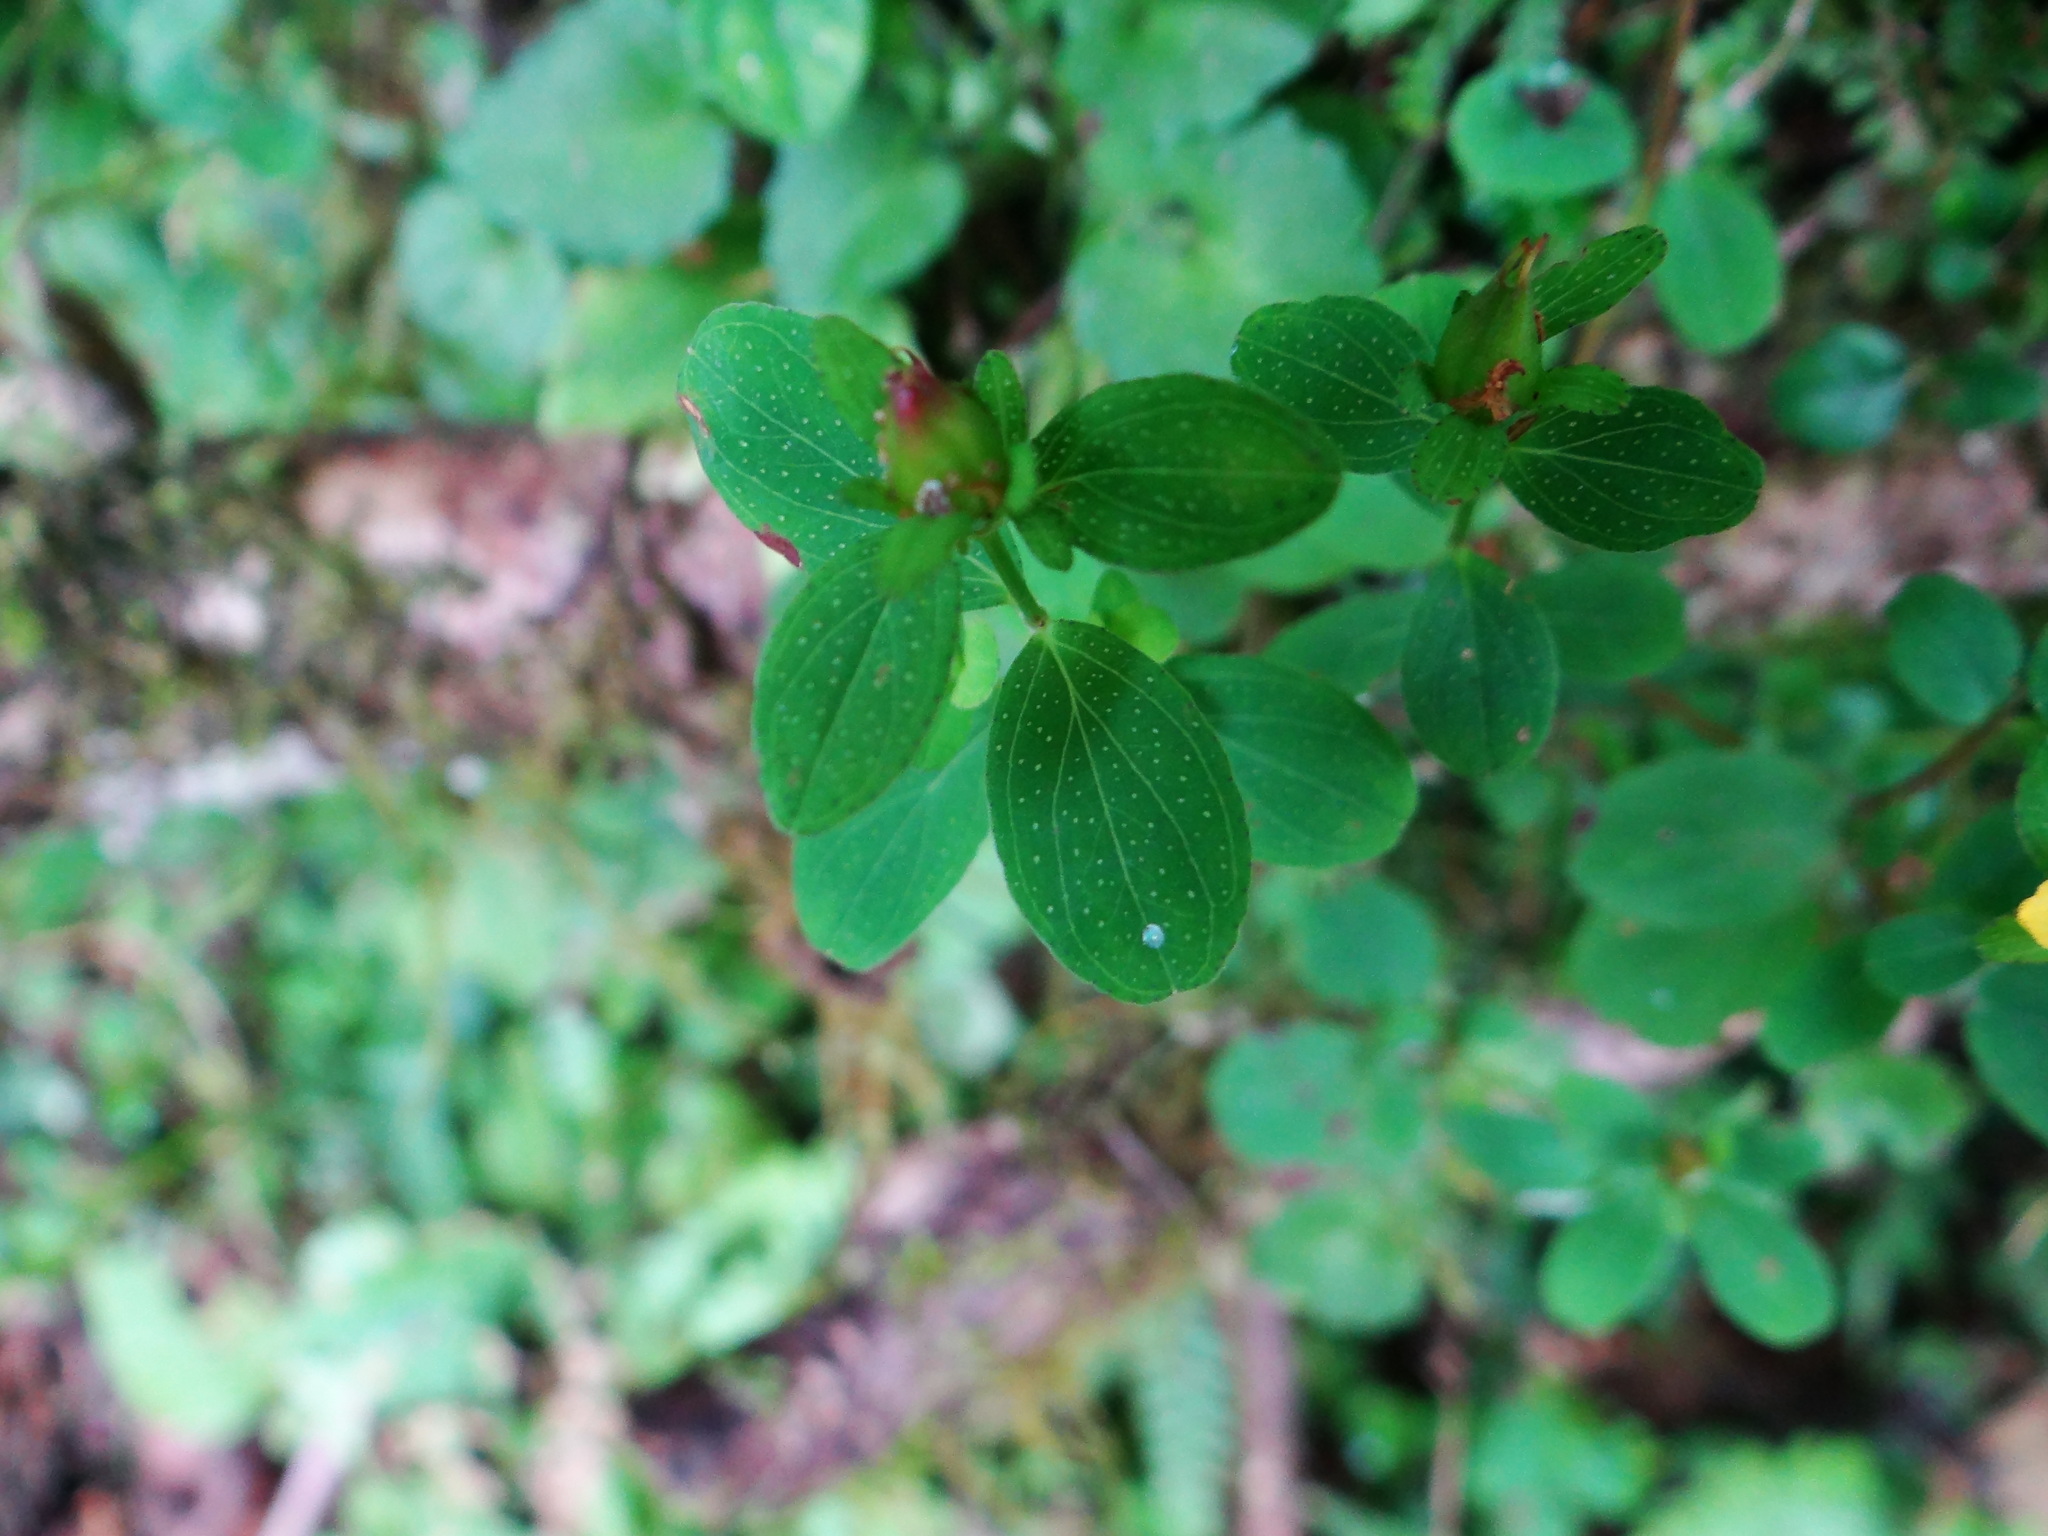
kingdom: Plantae
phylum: Tracheophyta
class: Magnoliopsida
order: Malpighiales
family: Hypericaceae
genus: Hypericum
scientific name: Hypericum taihezanense
